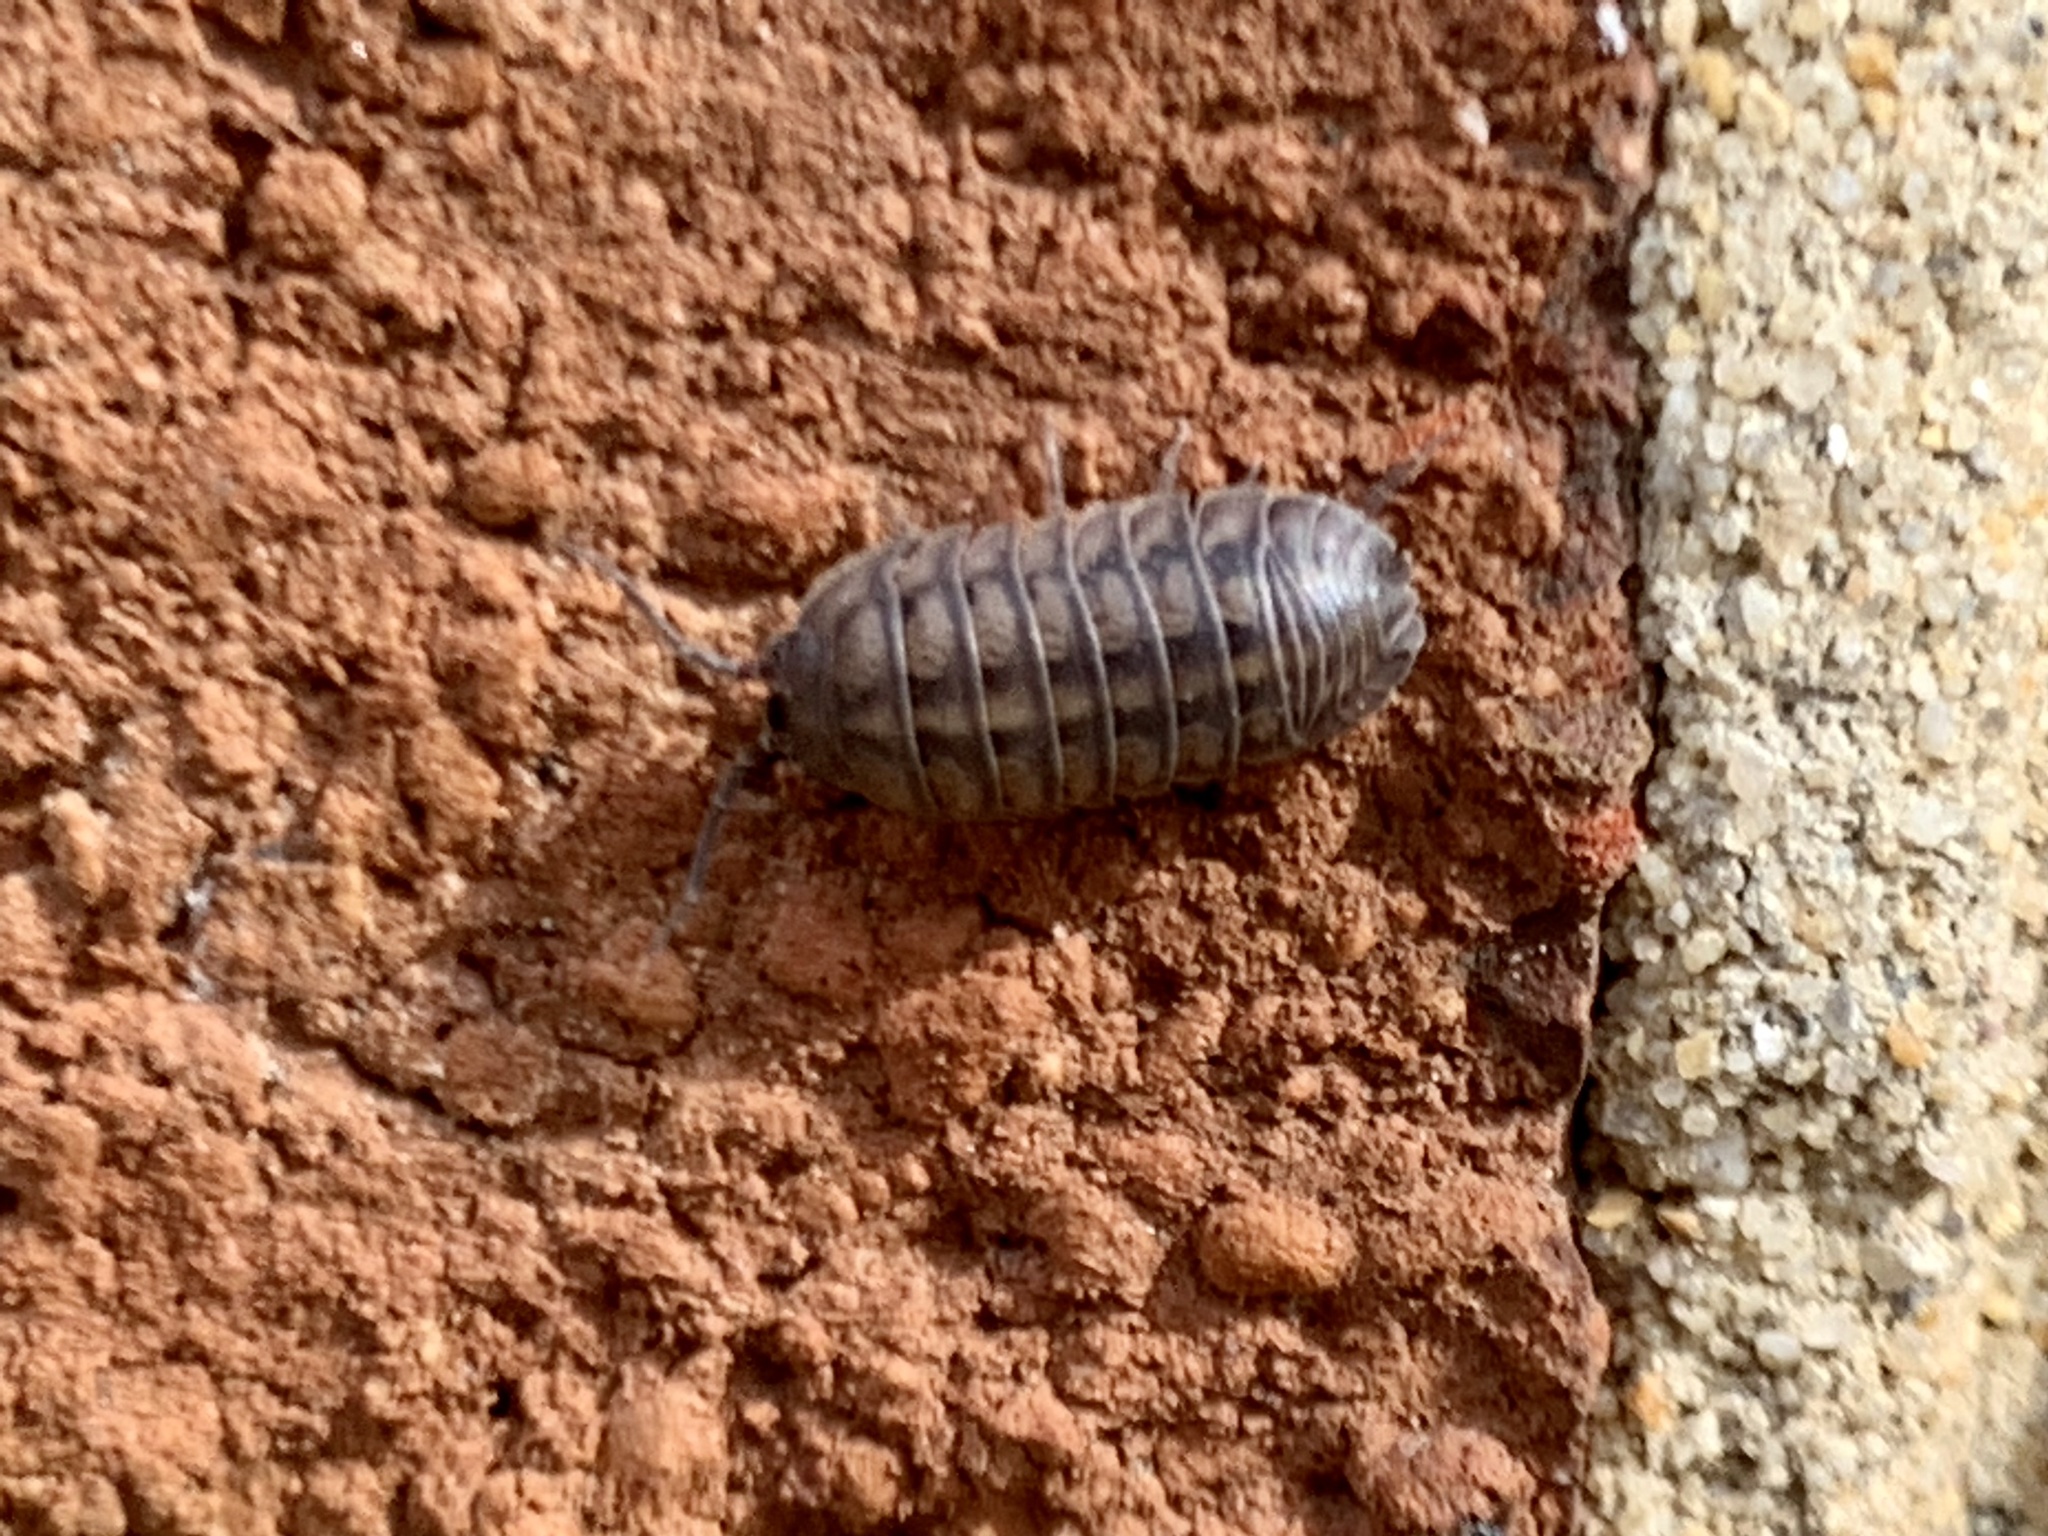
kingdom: Animalia
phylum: Arthropoda
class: Malacostraca
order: Isopoda
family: Armadillidiidae
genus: Armadillidium
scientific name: Armadillidium nasatum
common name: Isopod
